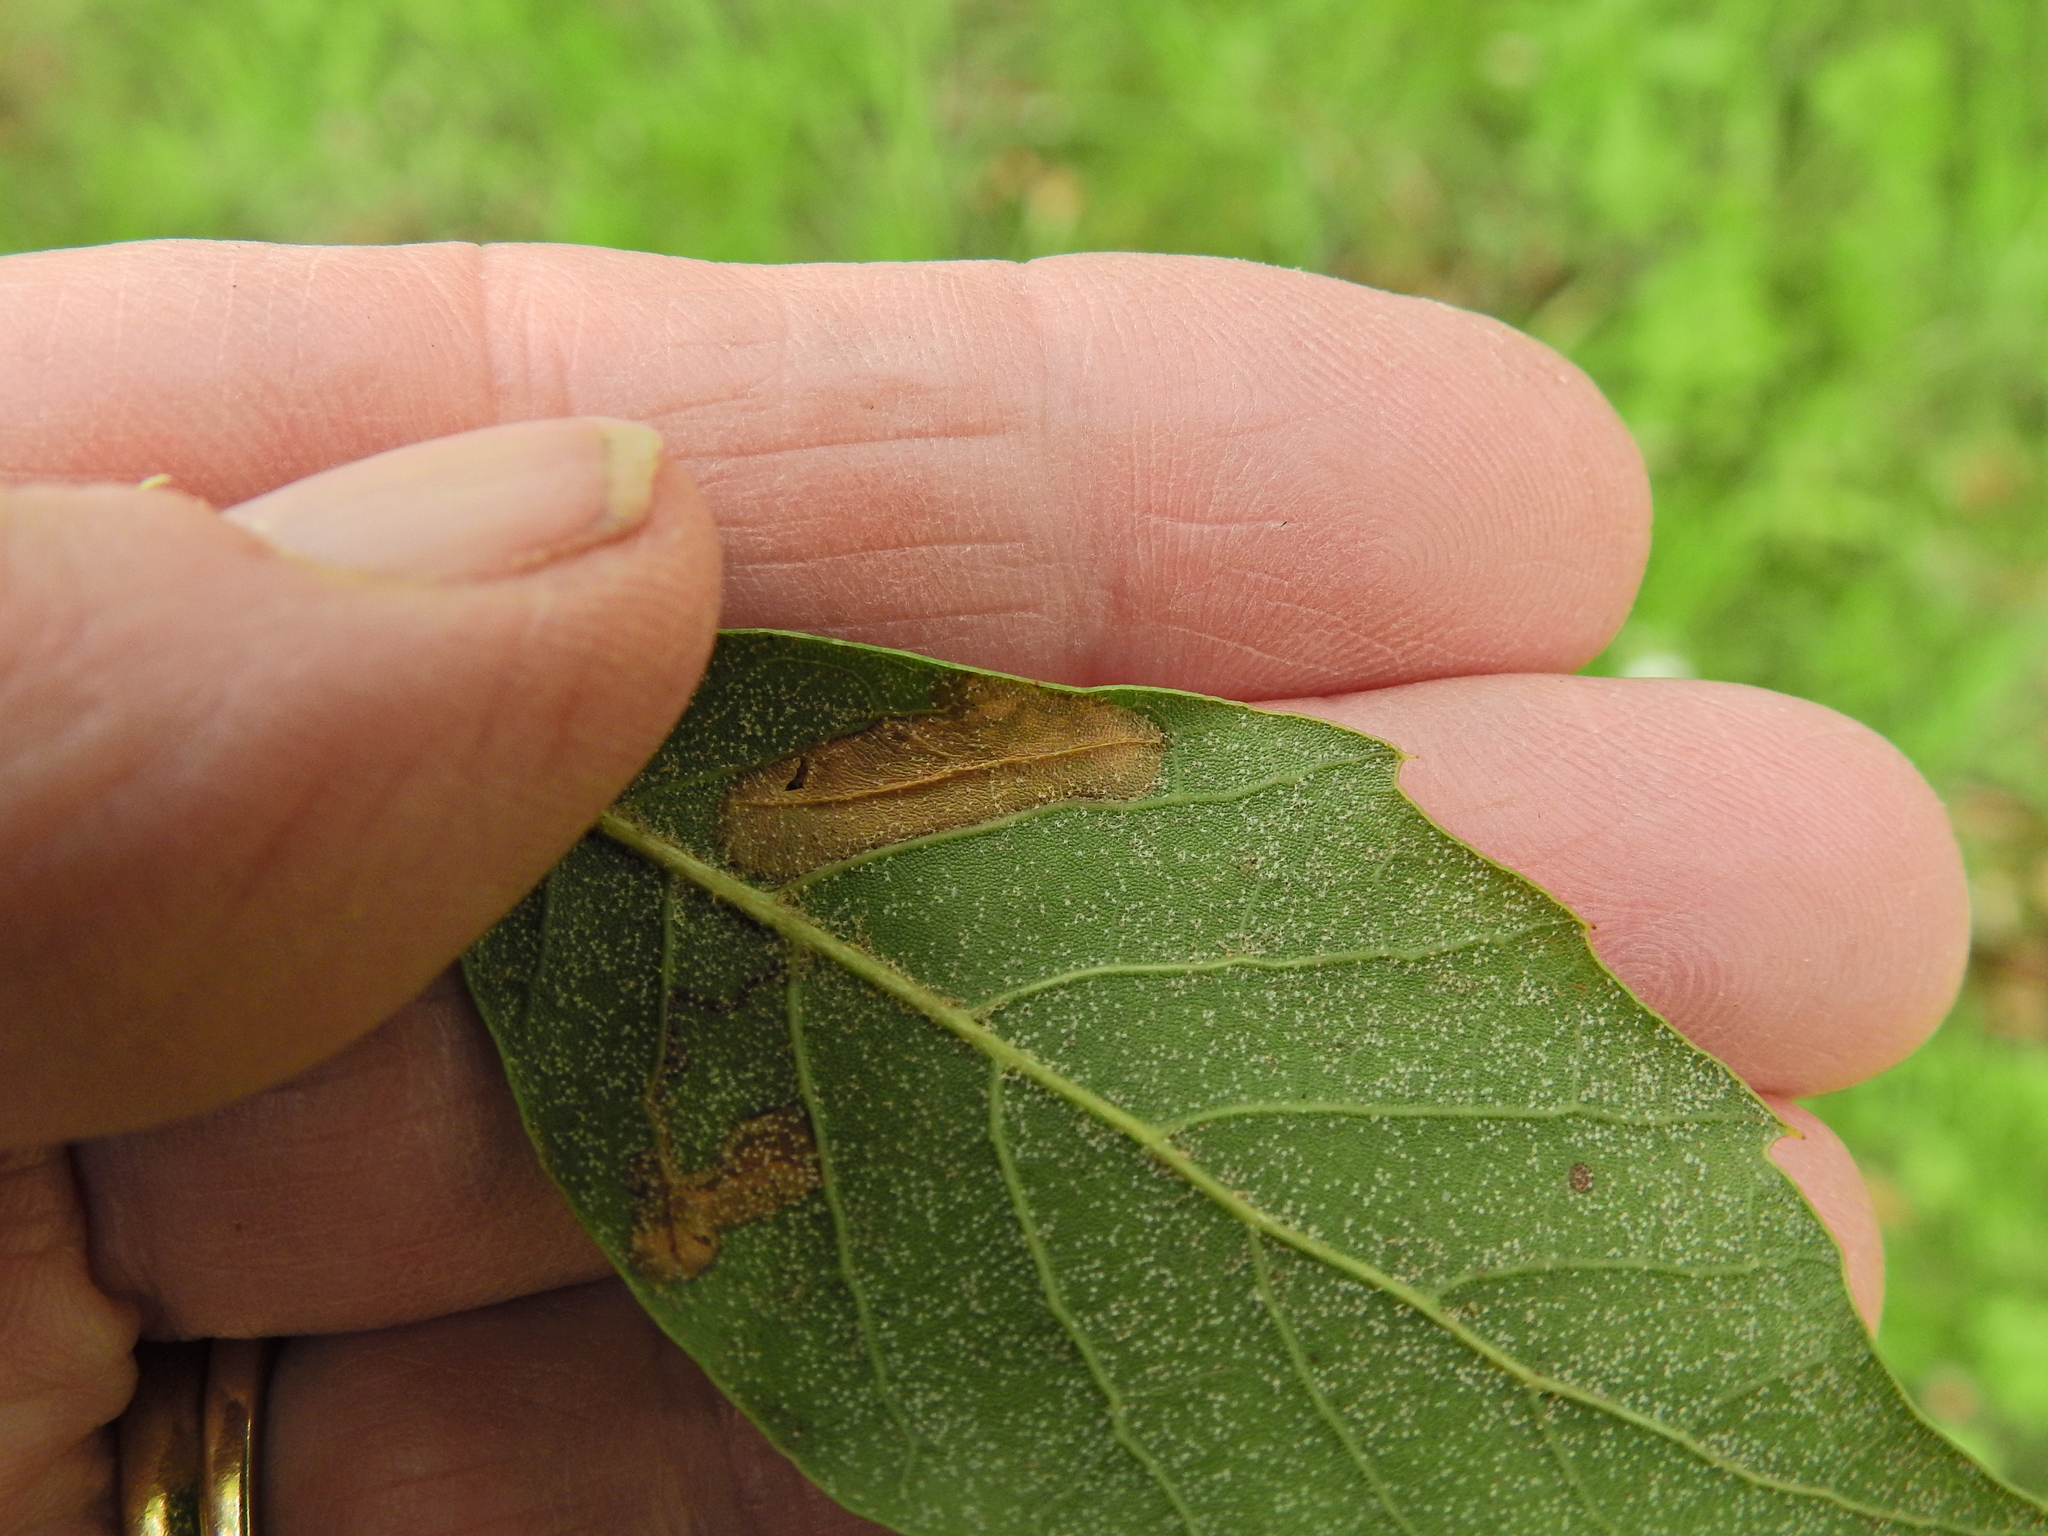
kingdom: Animalia
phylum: Arthropoda
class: Insecta
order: Lepidoptera
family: Gracillariidae
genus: Phyllonorycter
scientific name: Phyllonorycter messaniella
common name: Garden midget
